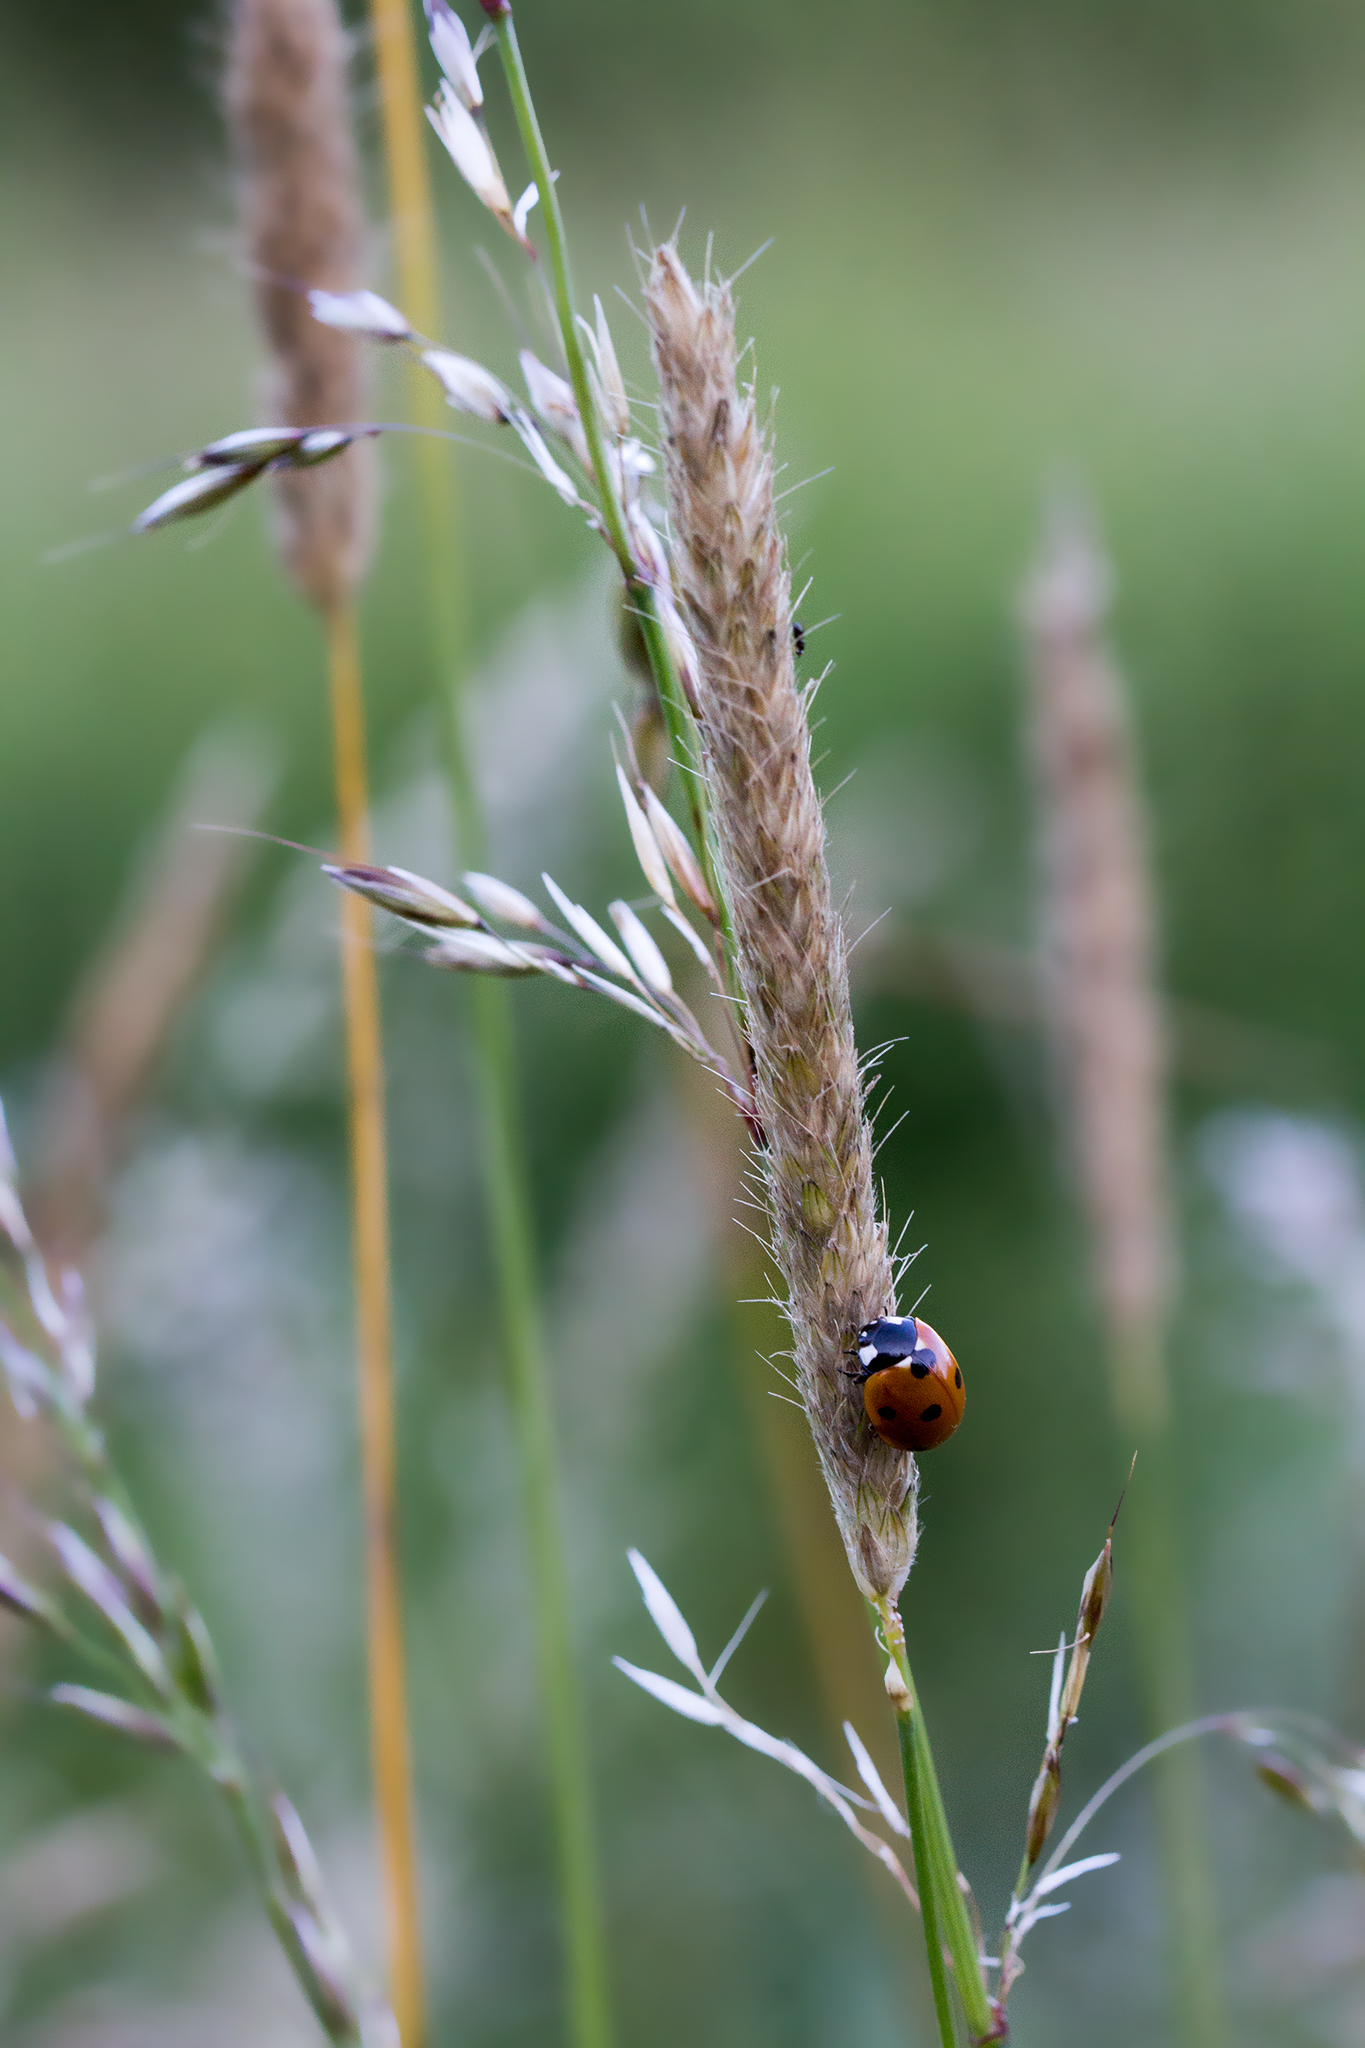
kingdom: Animalia
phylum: Arthropoda
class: Insecta
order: Coleoptera
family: Coccinellidae
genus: Coccinella
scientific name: Coccinella septempunctata
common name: Sevenspotted lady beetle
